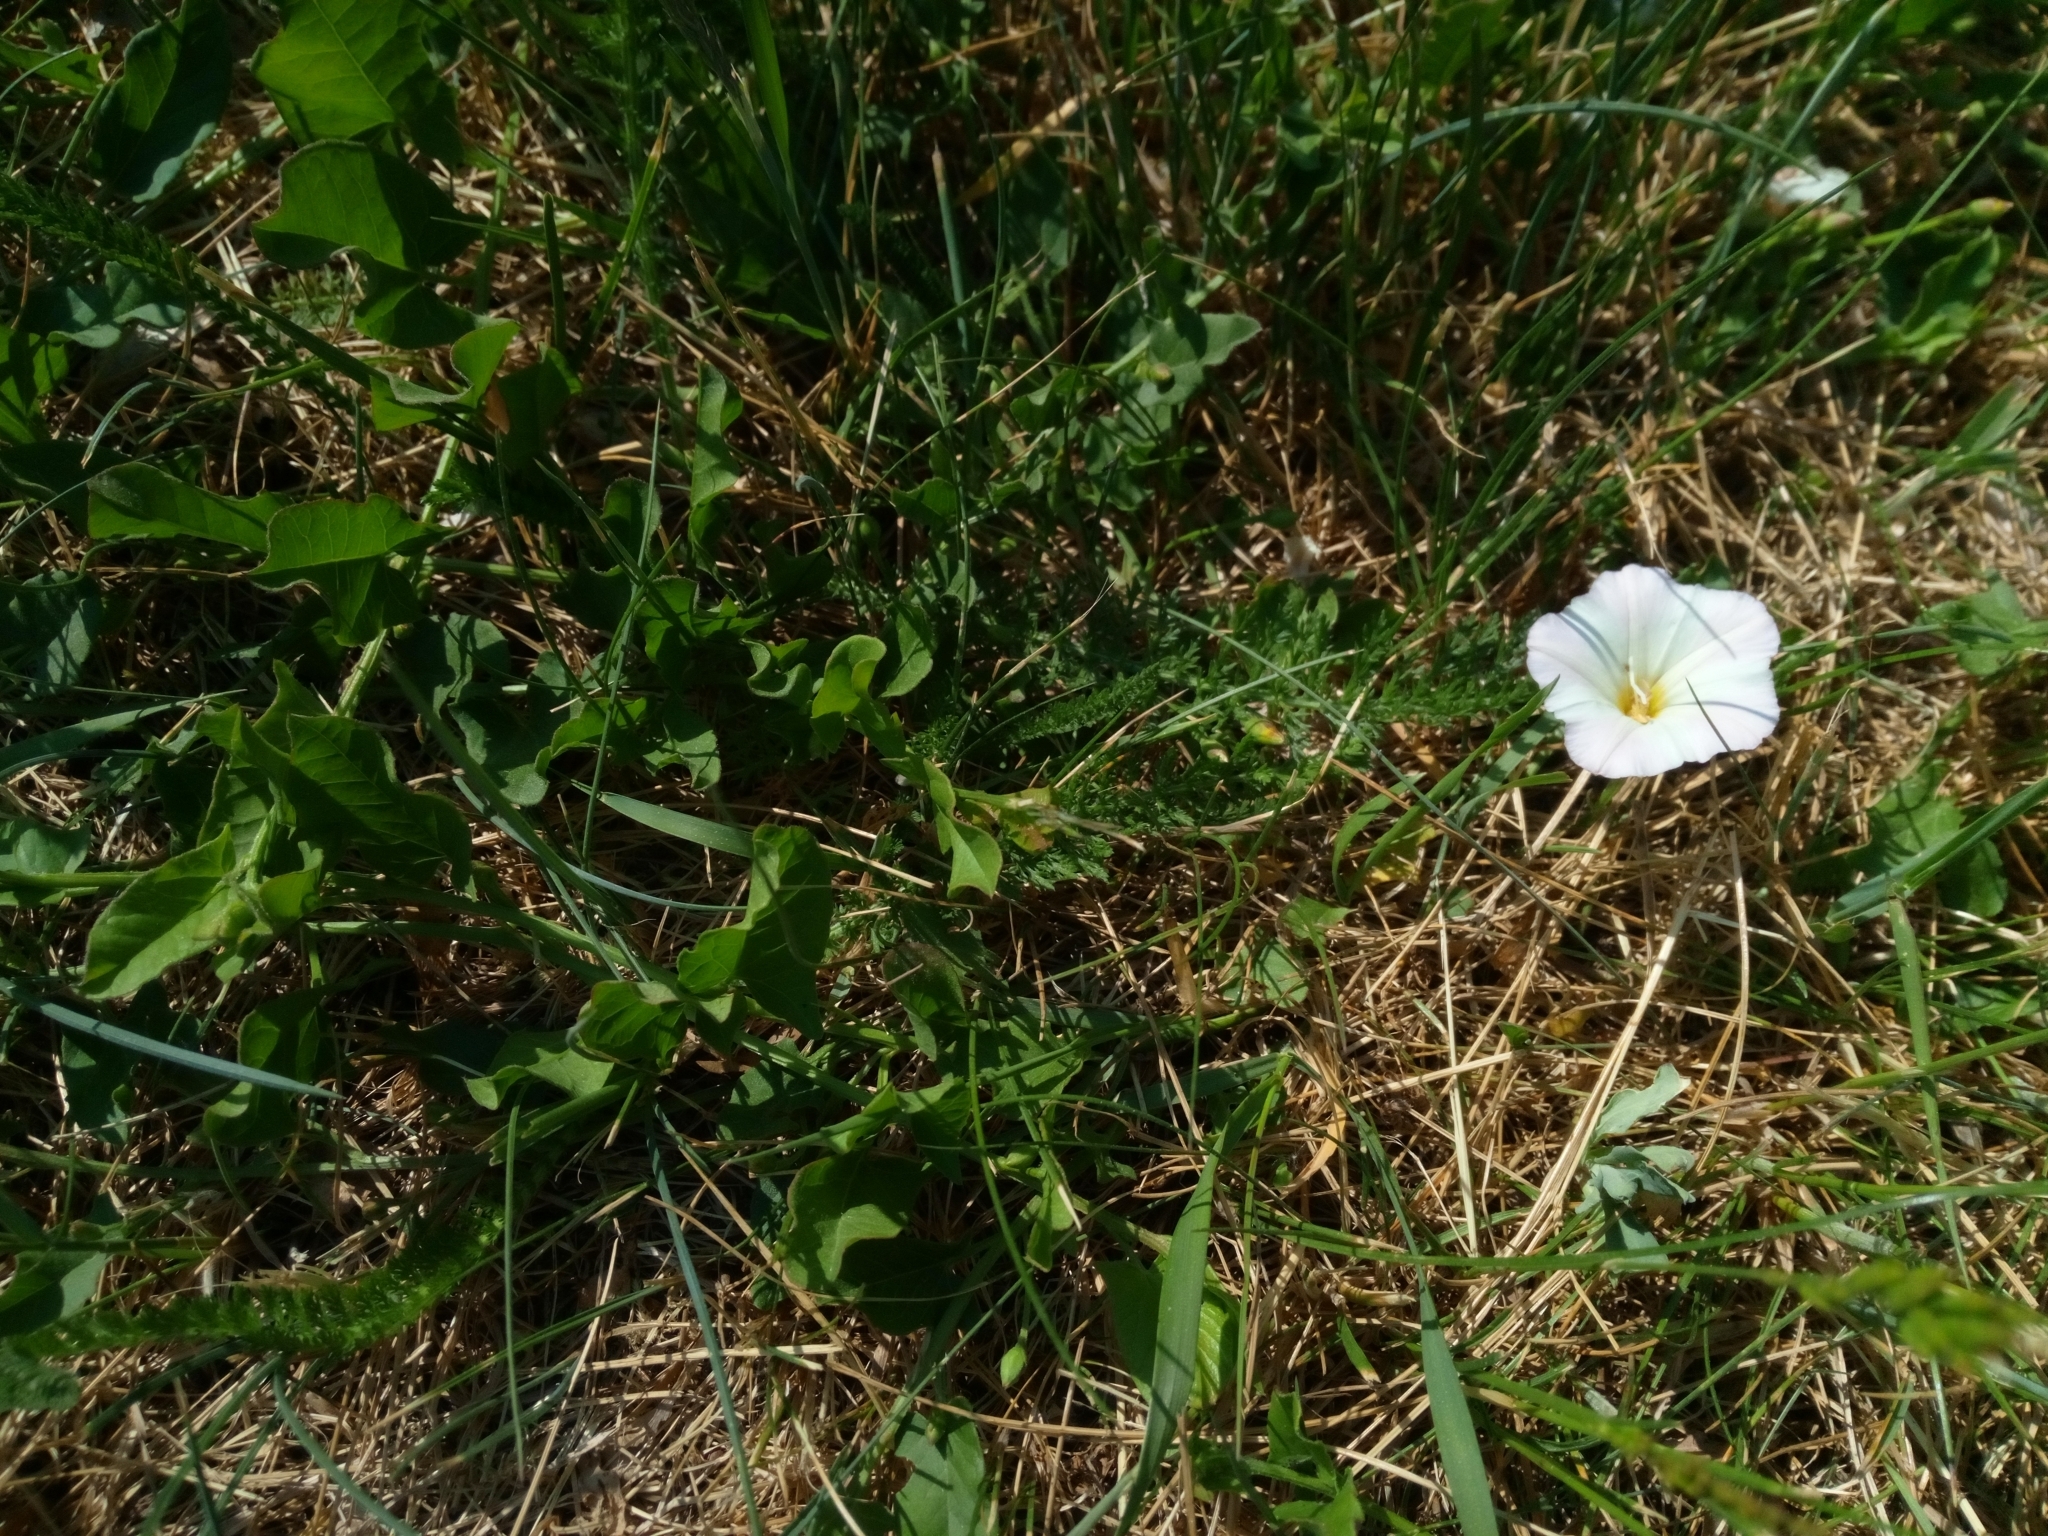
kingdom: Plantae
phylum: Tracheophyta
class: Magnoliopsida
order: Solanales
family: Convolvulaceae
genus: Convolvulus
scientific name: Convolvulus arvensis
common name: Field bindweed
